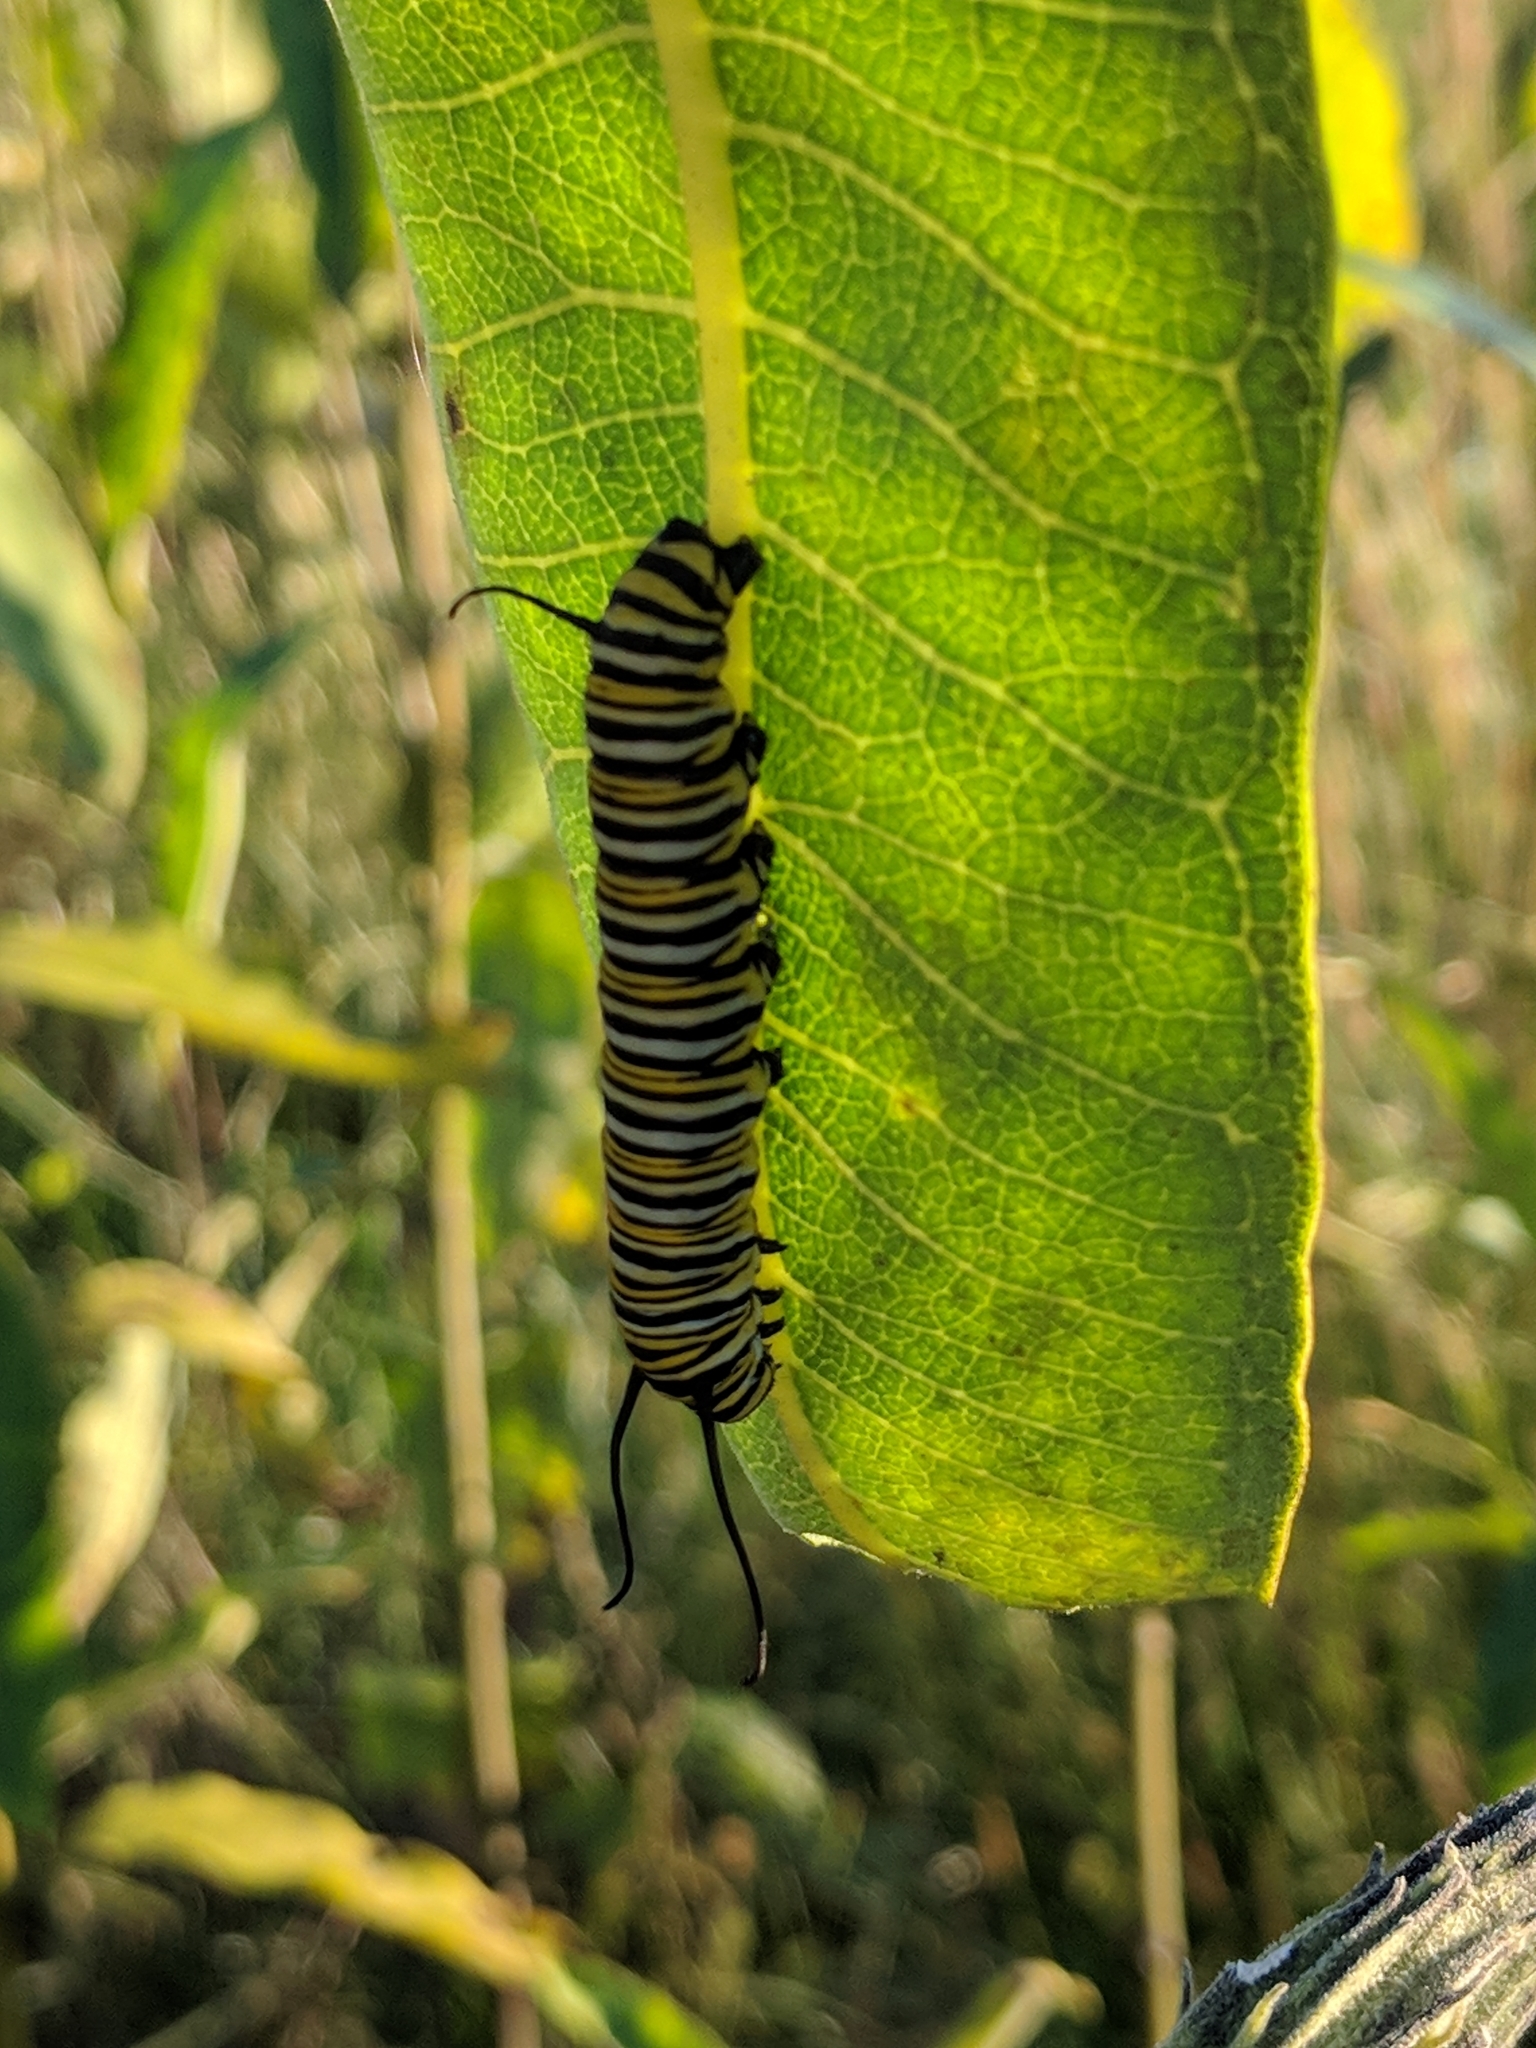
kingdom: Animalia
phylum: Arthropoda
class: Insecta
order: Lepidoptera
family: Nymphalidae
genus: Danaus
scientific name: Danaus plexippus
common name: Monarch
